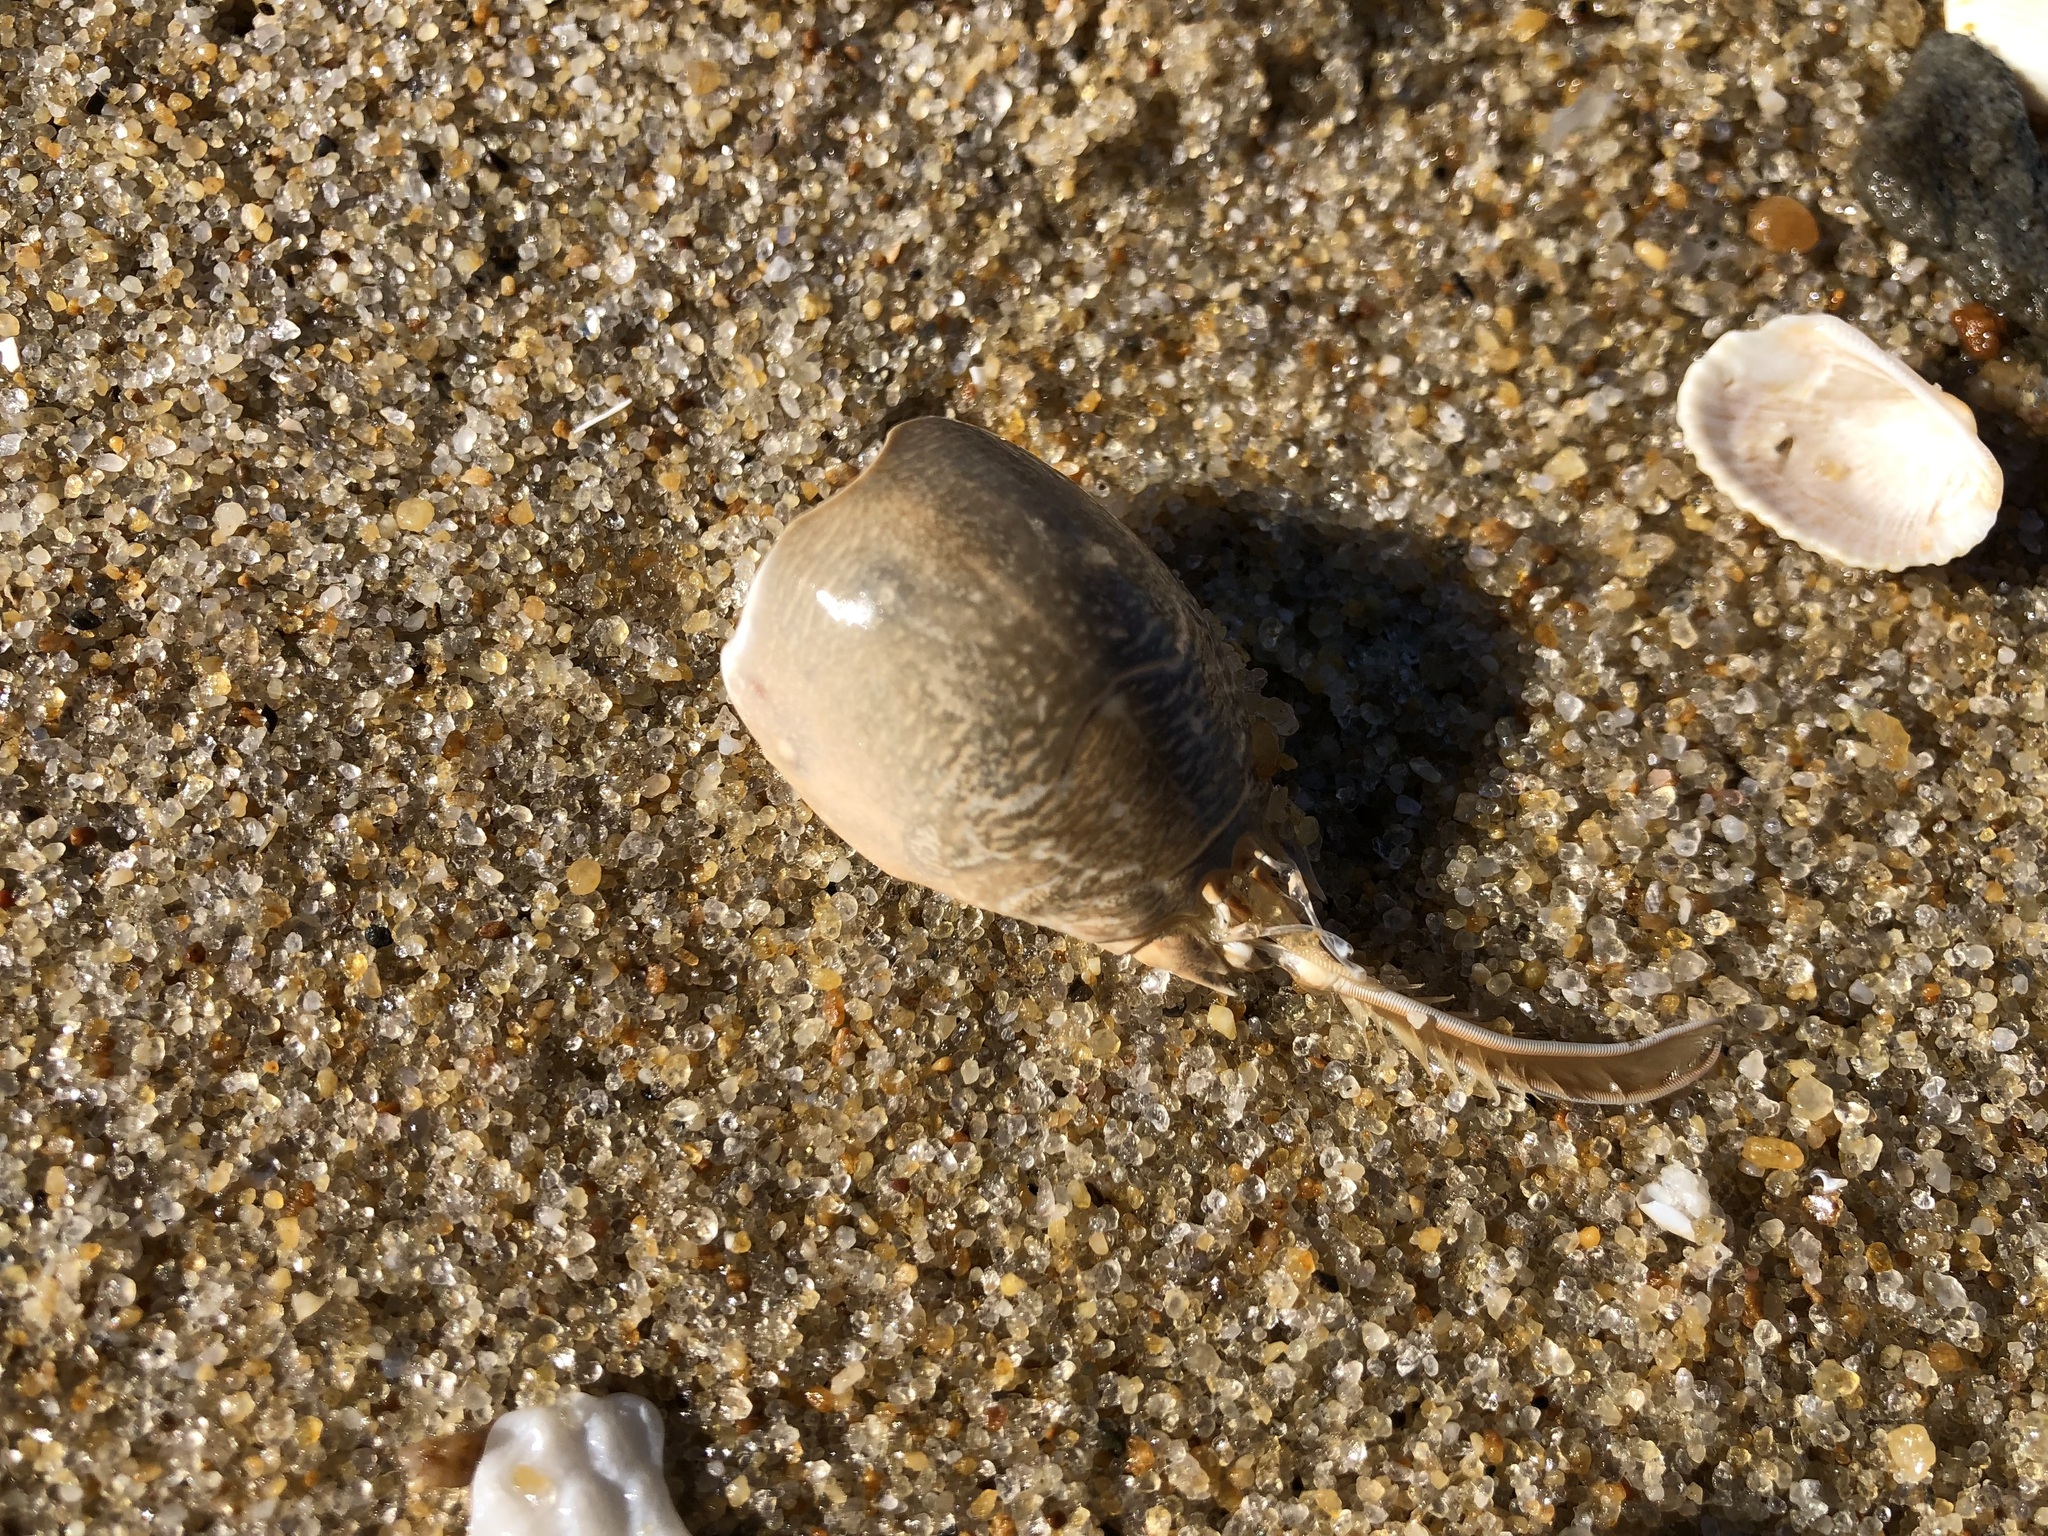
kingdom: Animalia
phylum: Arthropoda
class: Malacostraca
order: Decapoda
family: Hippidae
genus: Emerita
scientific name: Emerita talpoida
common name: Atlantic sand crab
